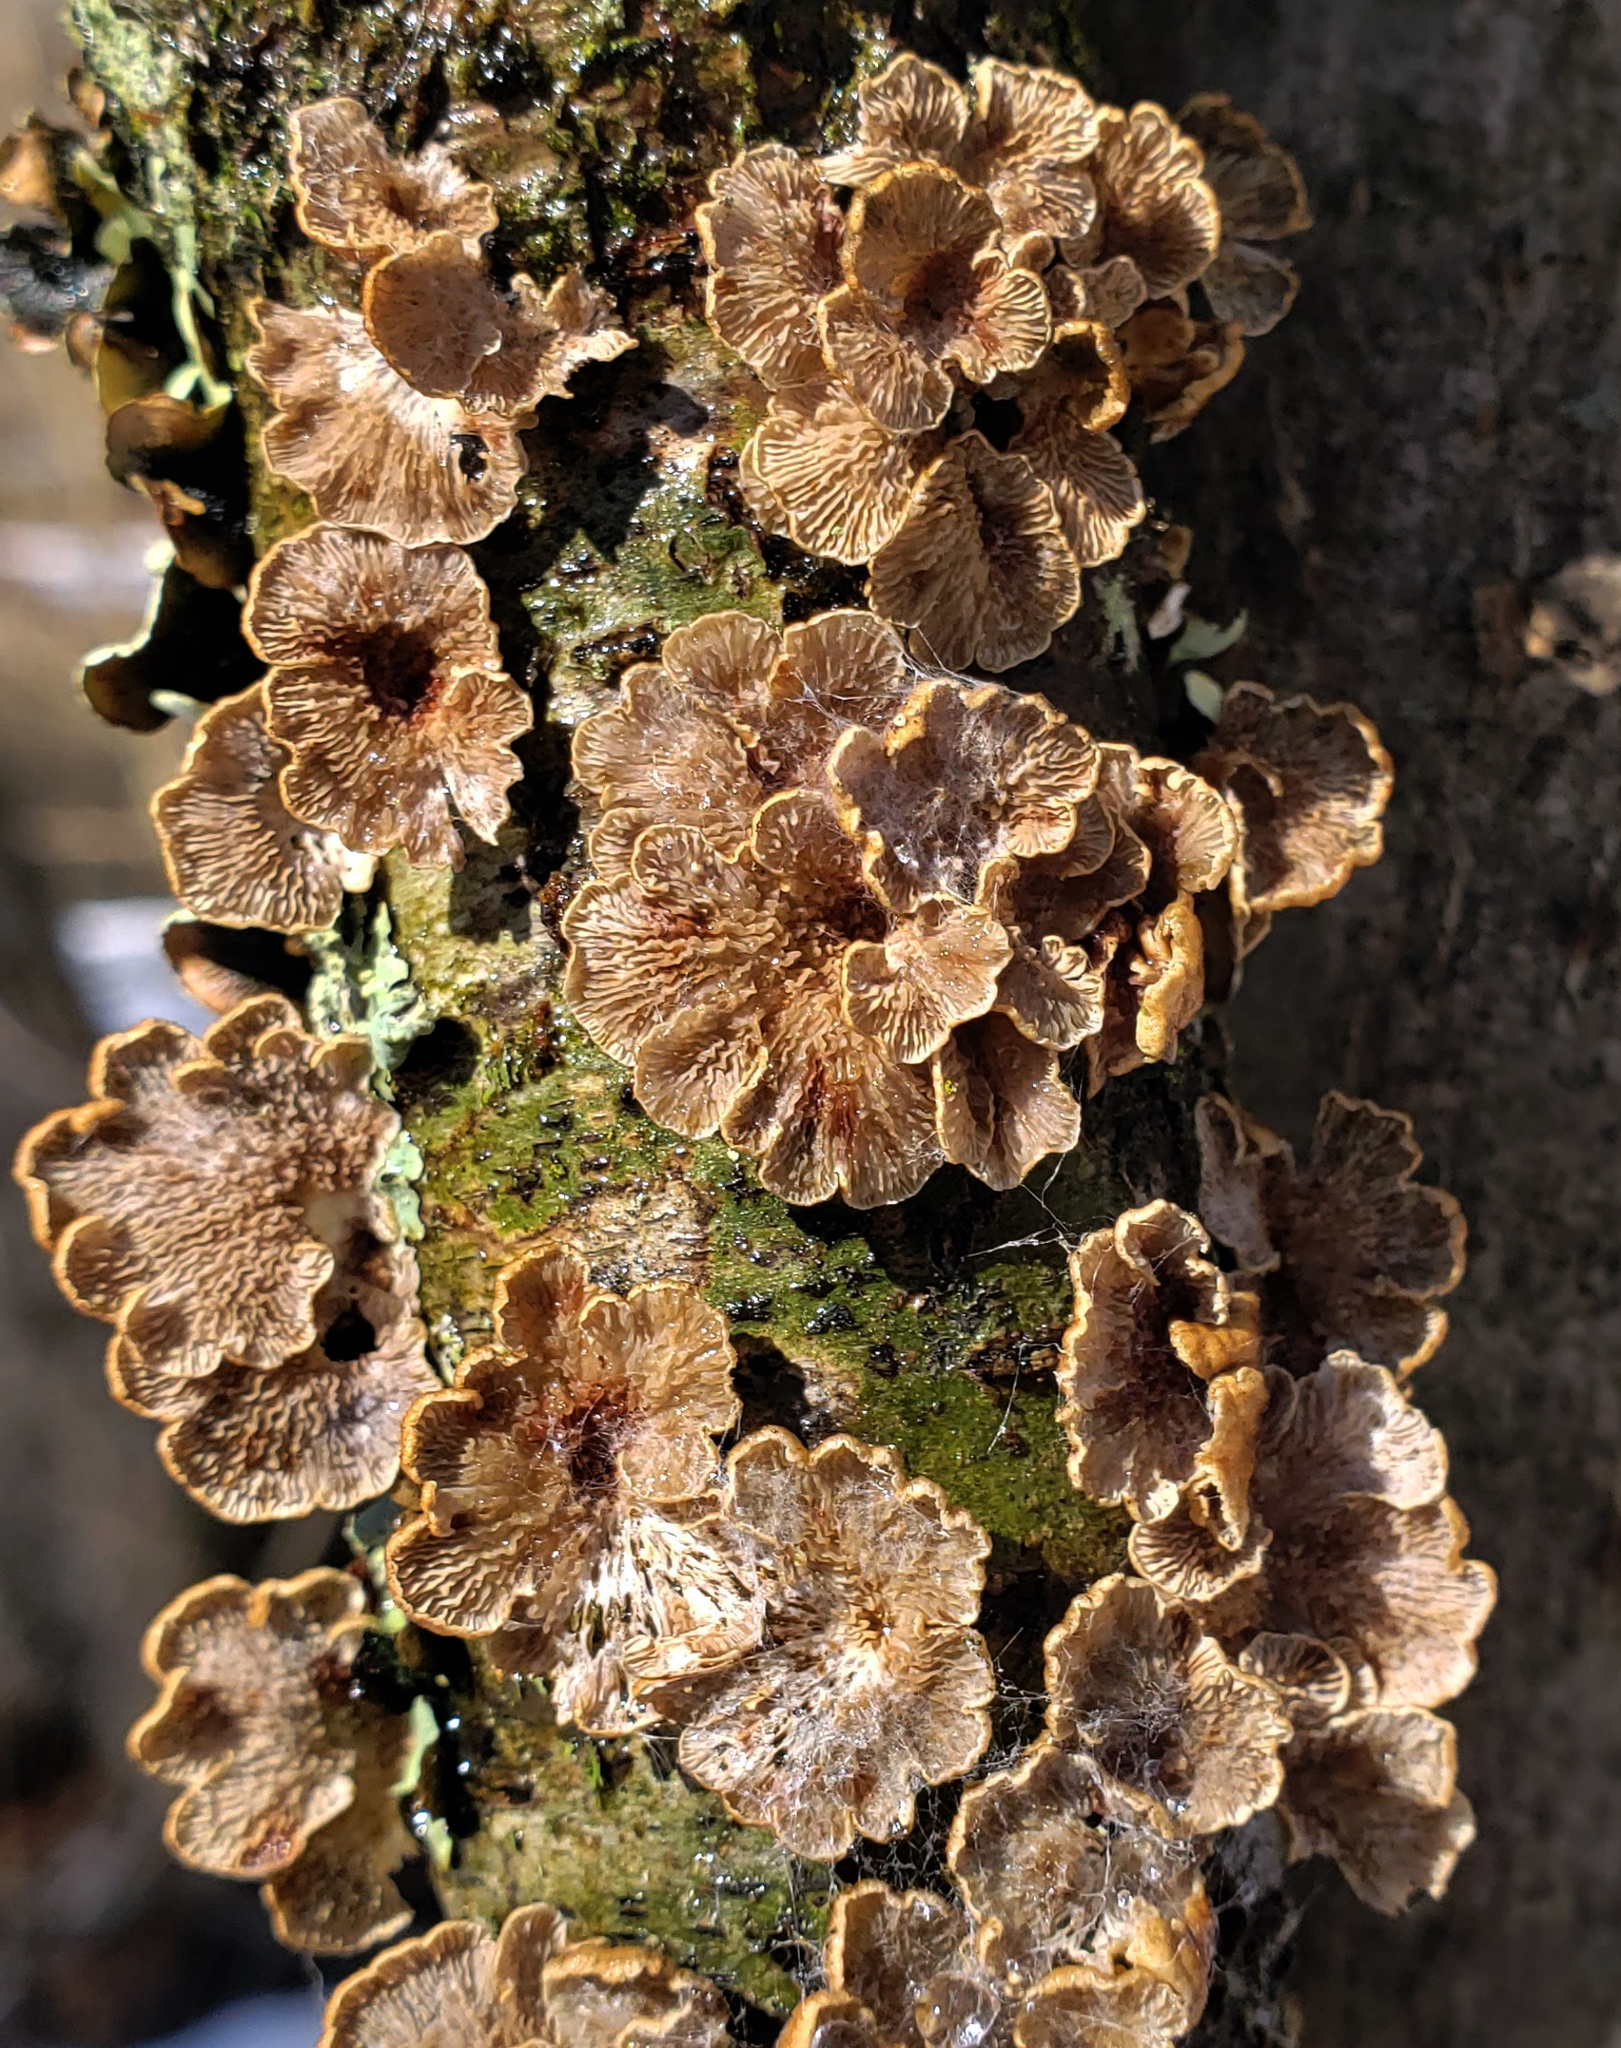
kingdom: Fungi
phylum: Basidiomycota
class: Agaricomycetes
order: Amylocorticiales
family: Amylocorticiaceae
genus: Plicaturopsis
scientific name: Plicaturopsis crispa
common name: Crimped gill
